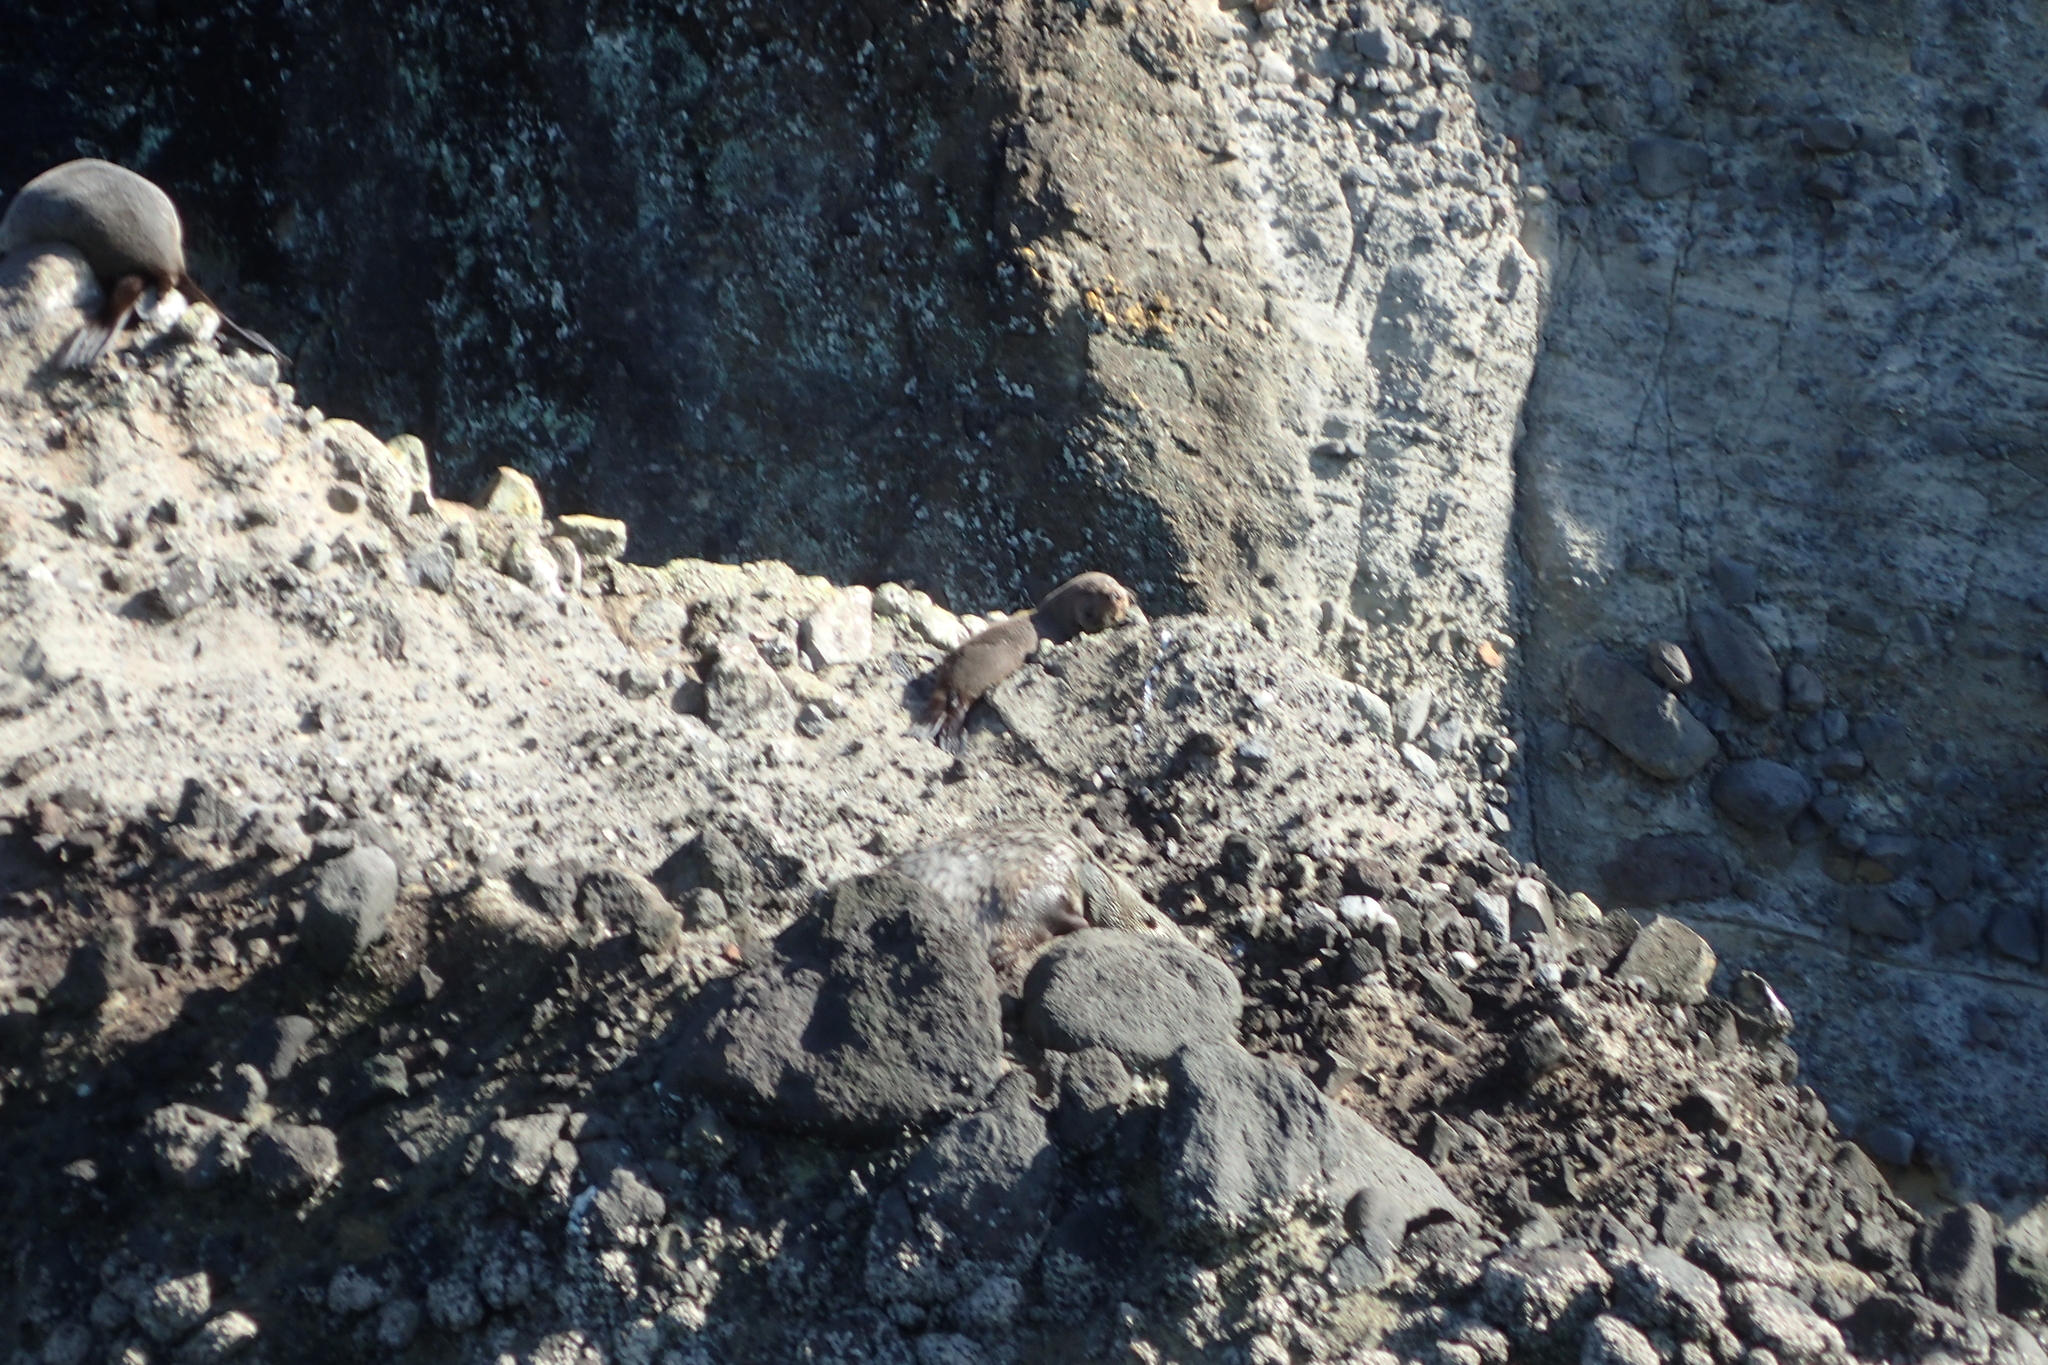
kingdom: Animalia
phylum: Chordata
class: Mammalia
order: Carnivora
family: Otariidae
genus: Arctocephalus
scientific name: Arctocephalus forsteri
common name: New zealand fur seal
